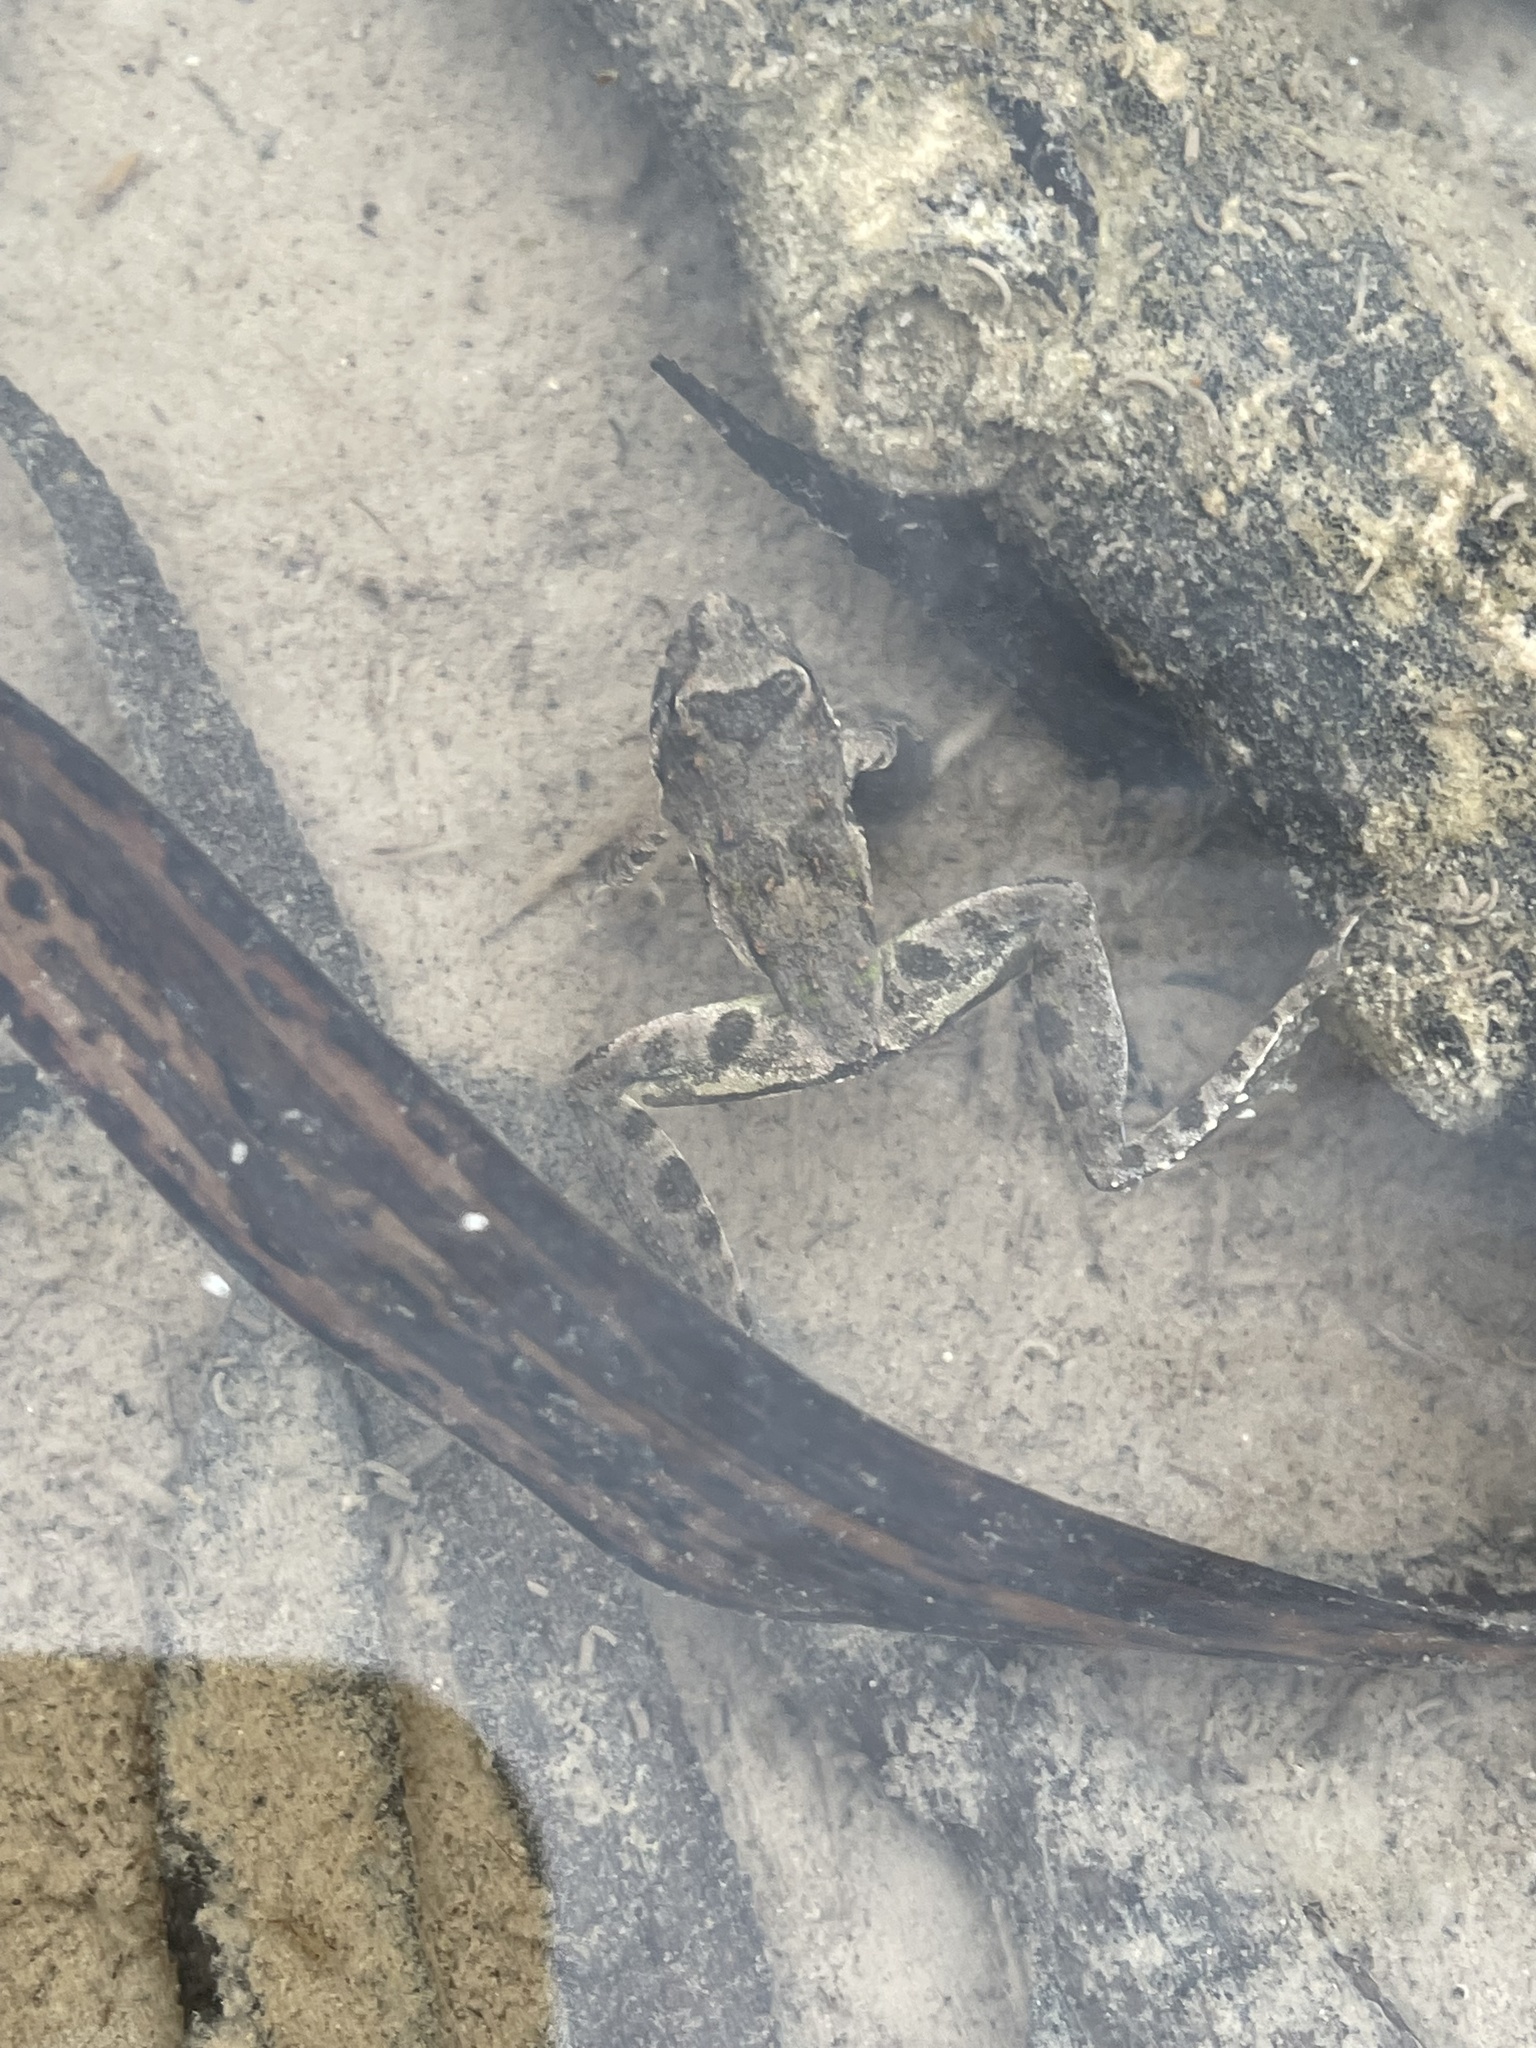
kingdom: Animalia
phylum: Chordata
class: Amphibia
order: Anura
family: Hylidae
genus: Acris
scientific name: Acris blanchardi
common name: Blanchard's cricket frog
